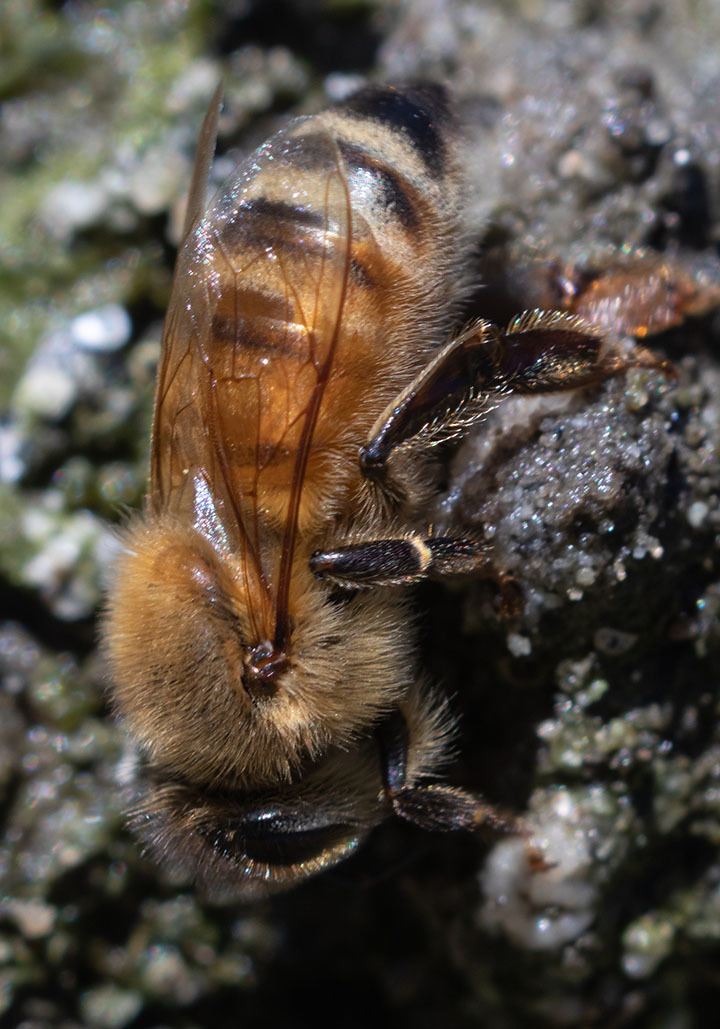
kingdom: Animalia
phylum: Arthropoda
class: Insecta
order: Hymenoptera
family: Apidae
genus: Apis
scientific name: Apis mellifera
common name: Honey bee
